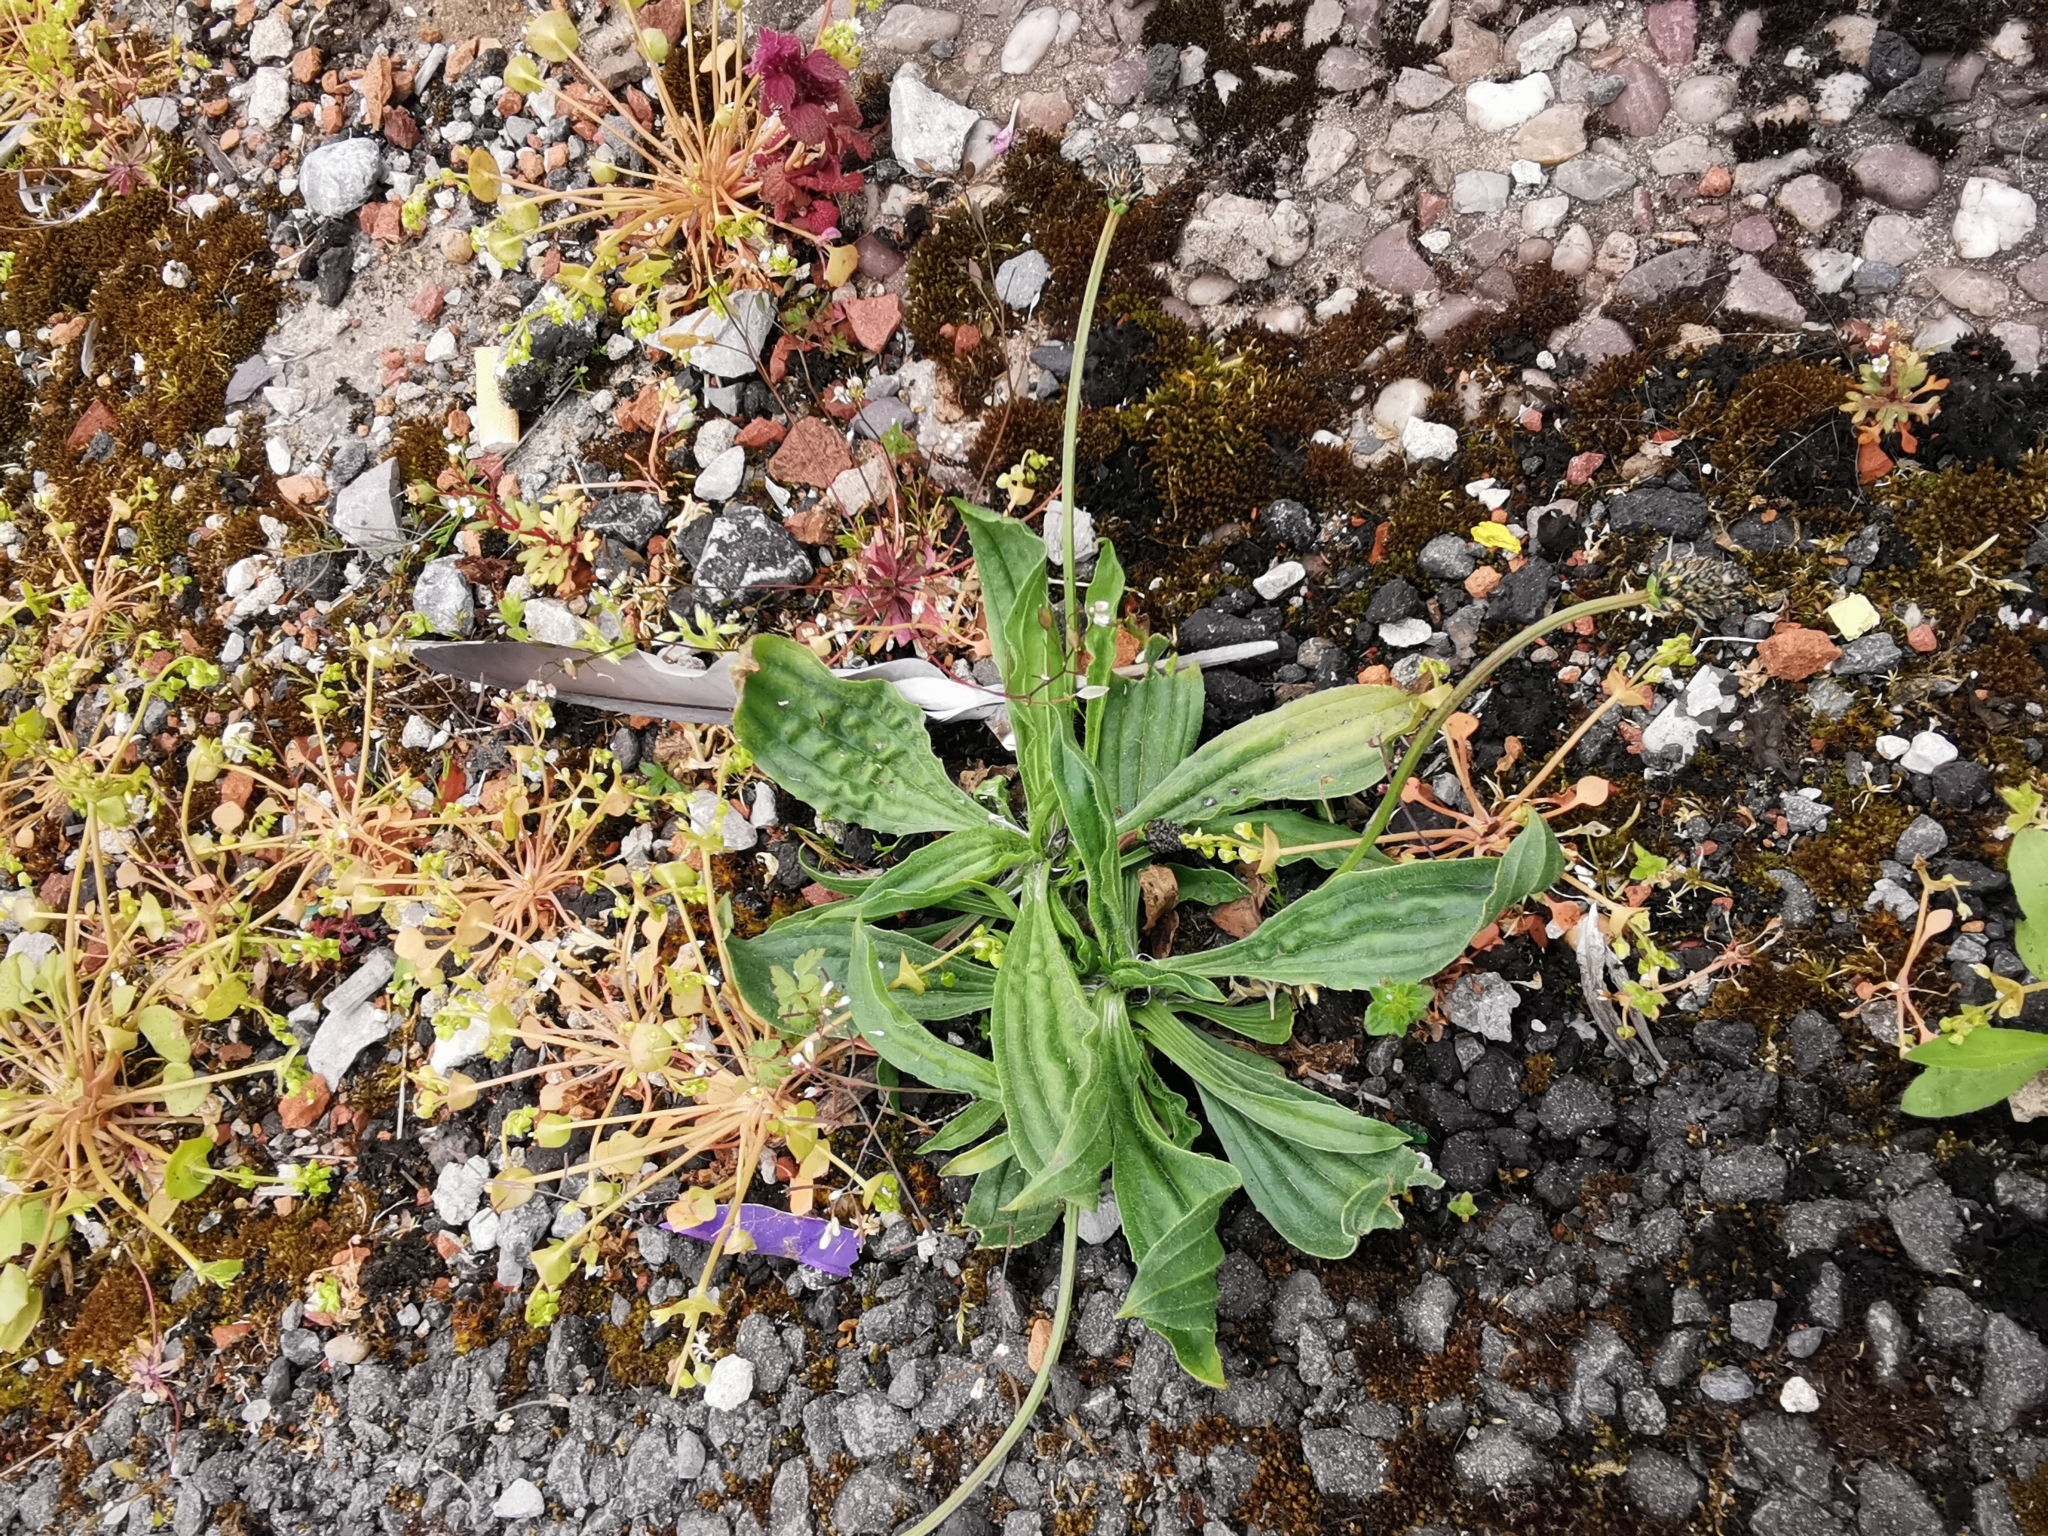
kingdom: Plantae
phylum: Tracheophyta
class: Magnoliopsida
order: Lamiales
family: Plantaginaceae
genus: Plantago
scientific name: Plantago lanceolata
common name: Ribwort plantain
